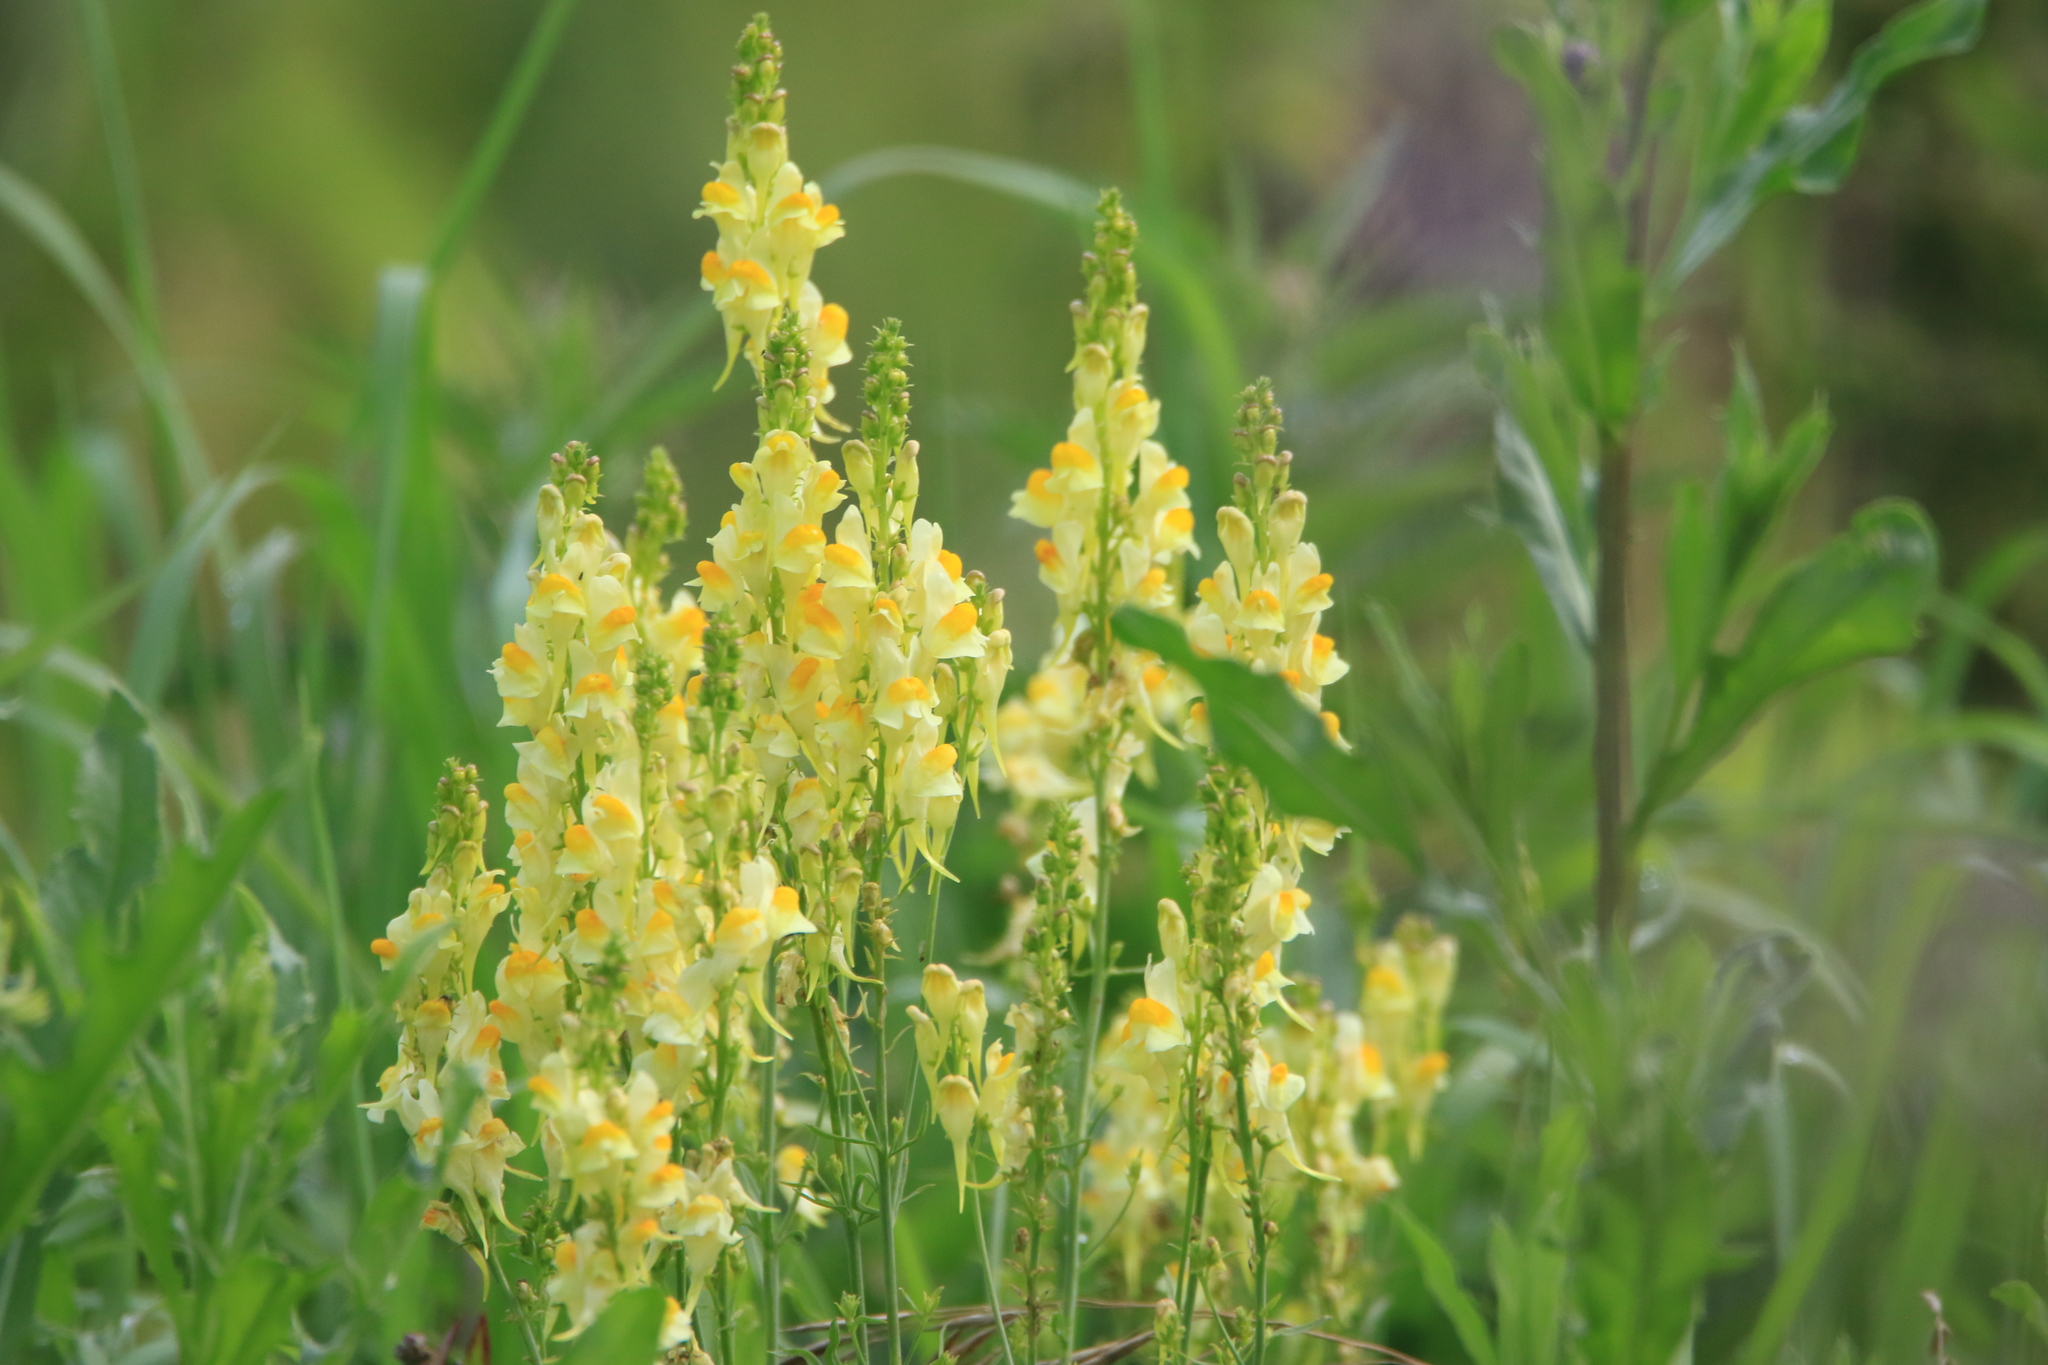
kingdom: Plantae
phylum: Tracheophyta
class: Magnoliopsida
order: Lamiales
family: Plantaginaceae
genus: Linaria
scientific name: Linaria vulgaris
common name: Butter and eggs
